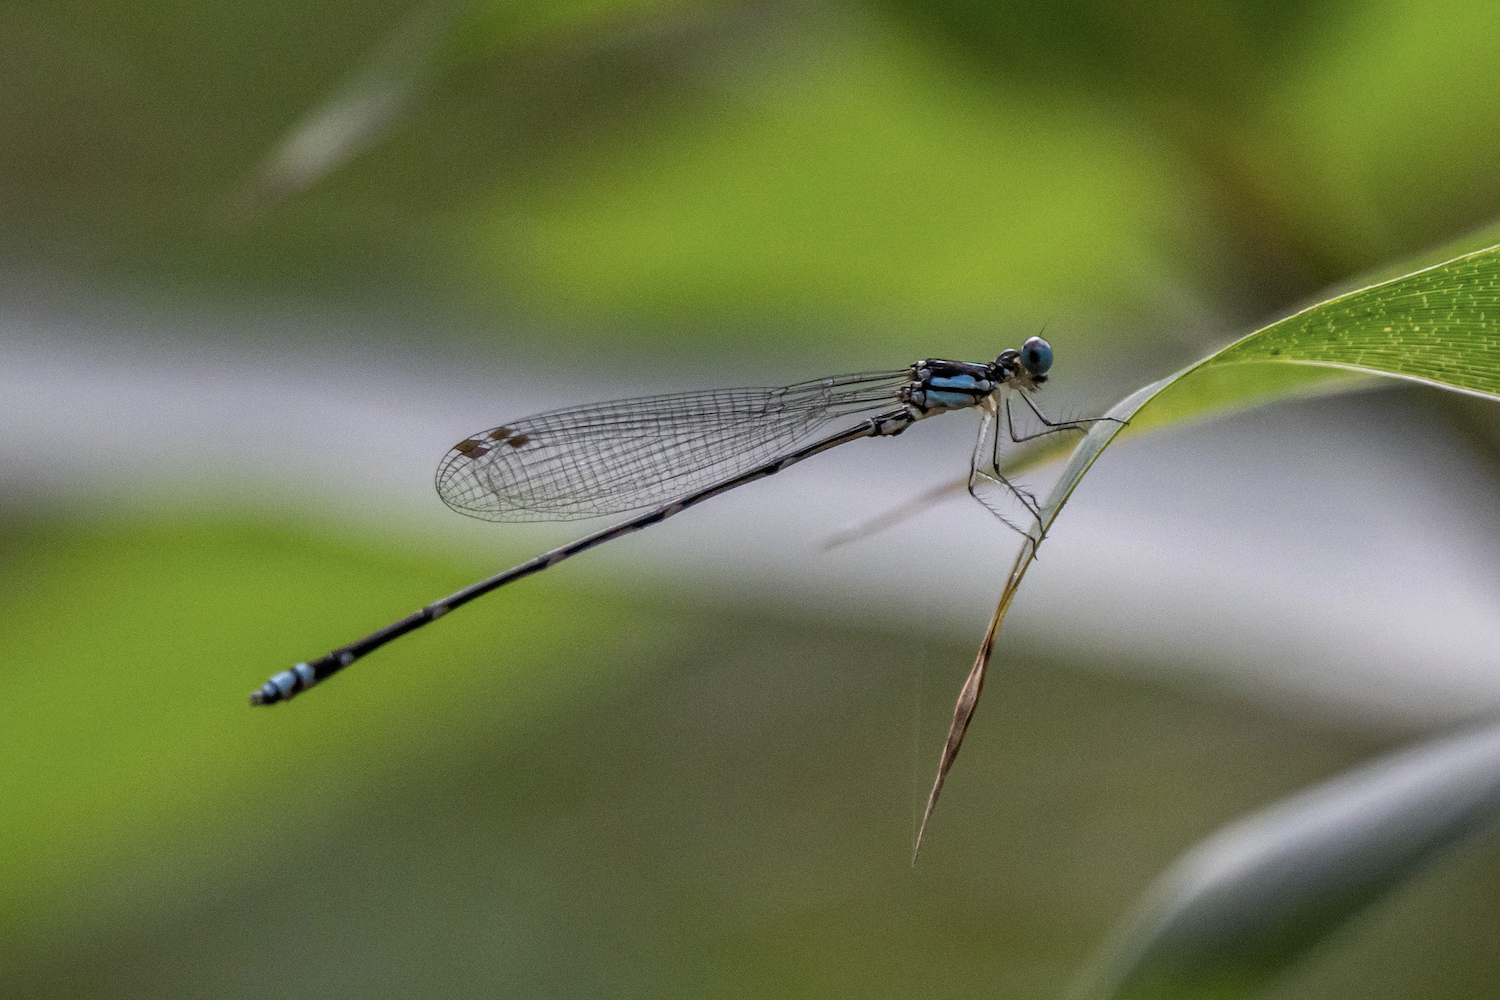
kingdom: Animalia
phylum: Arthropoda
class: Insecta
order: Odonata
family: Platycnemididae
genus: Coeliccia
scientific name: Coeliccia cyanomelas
